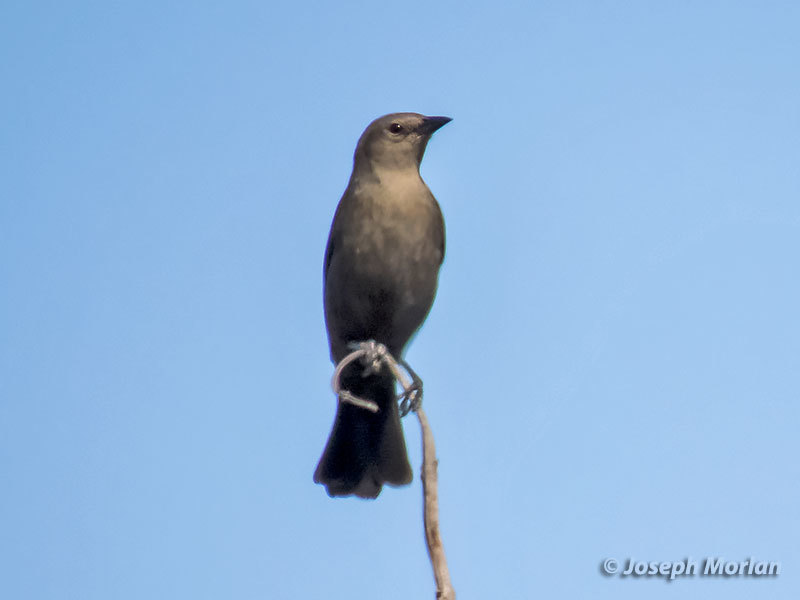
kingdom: Animalia
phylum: Chordata
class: Aves
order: Passeriformes
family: Icteridae
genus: Euphagus
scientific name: Euphagus cyanocephalus
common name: Brewer's blackbird
